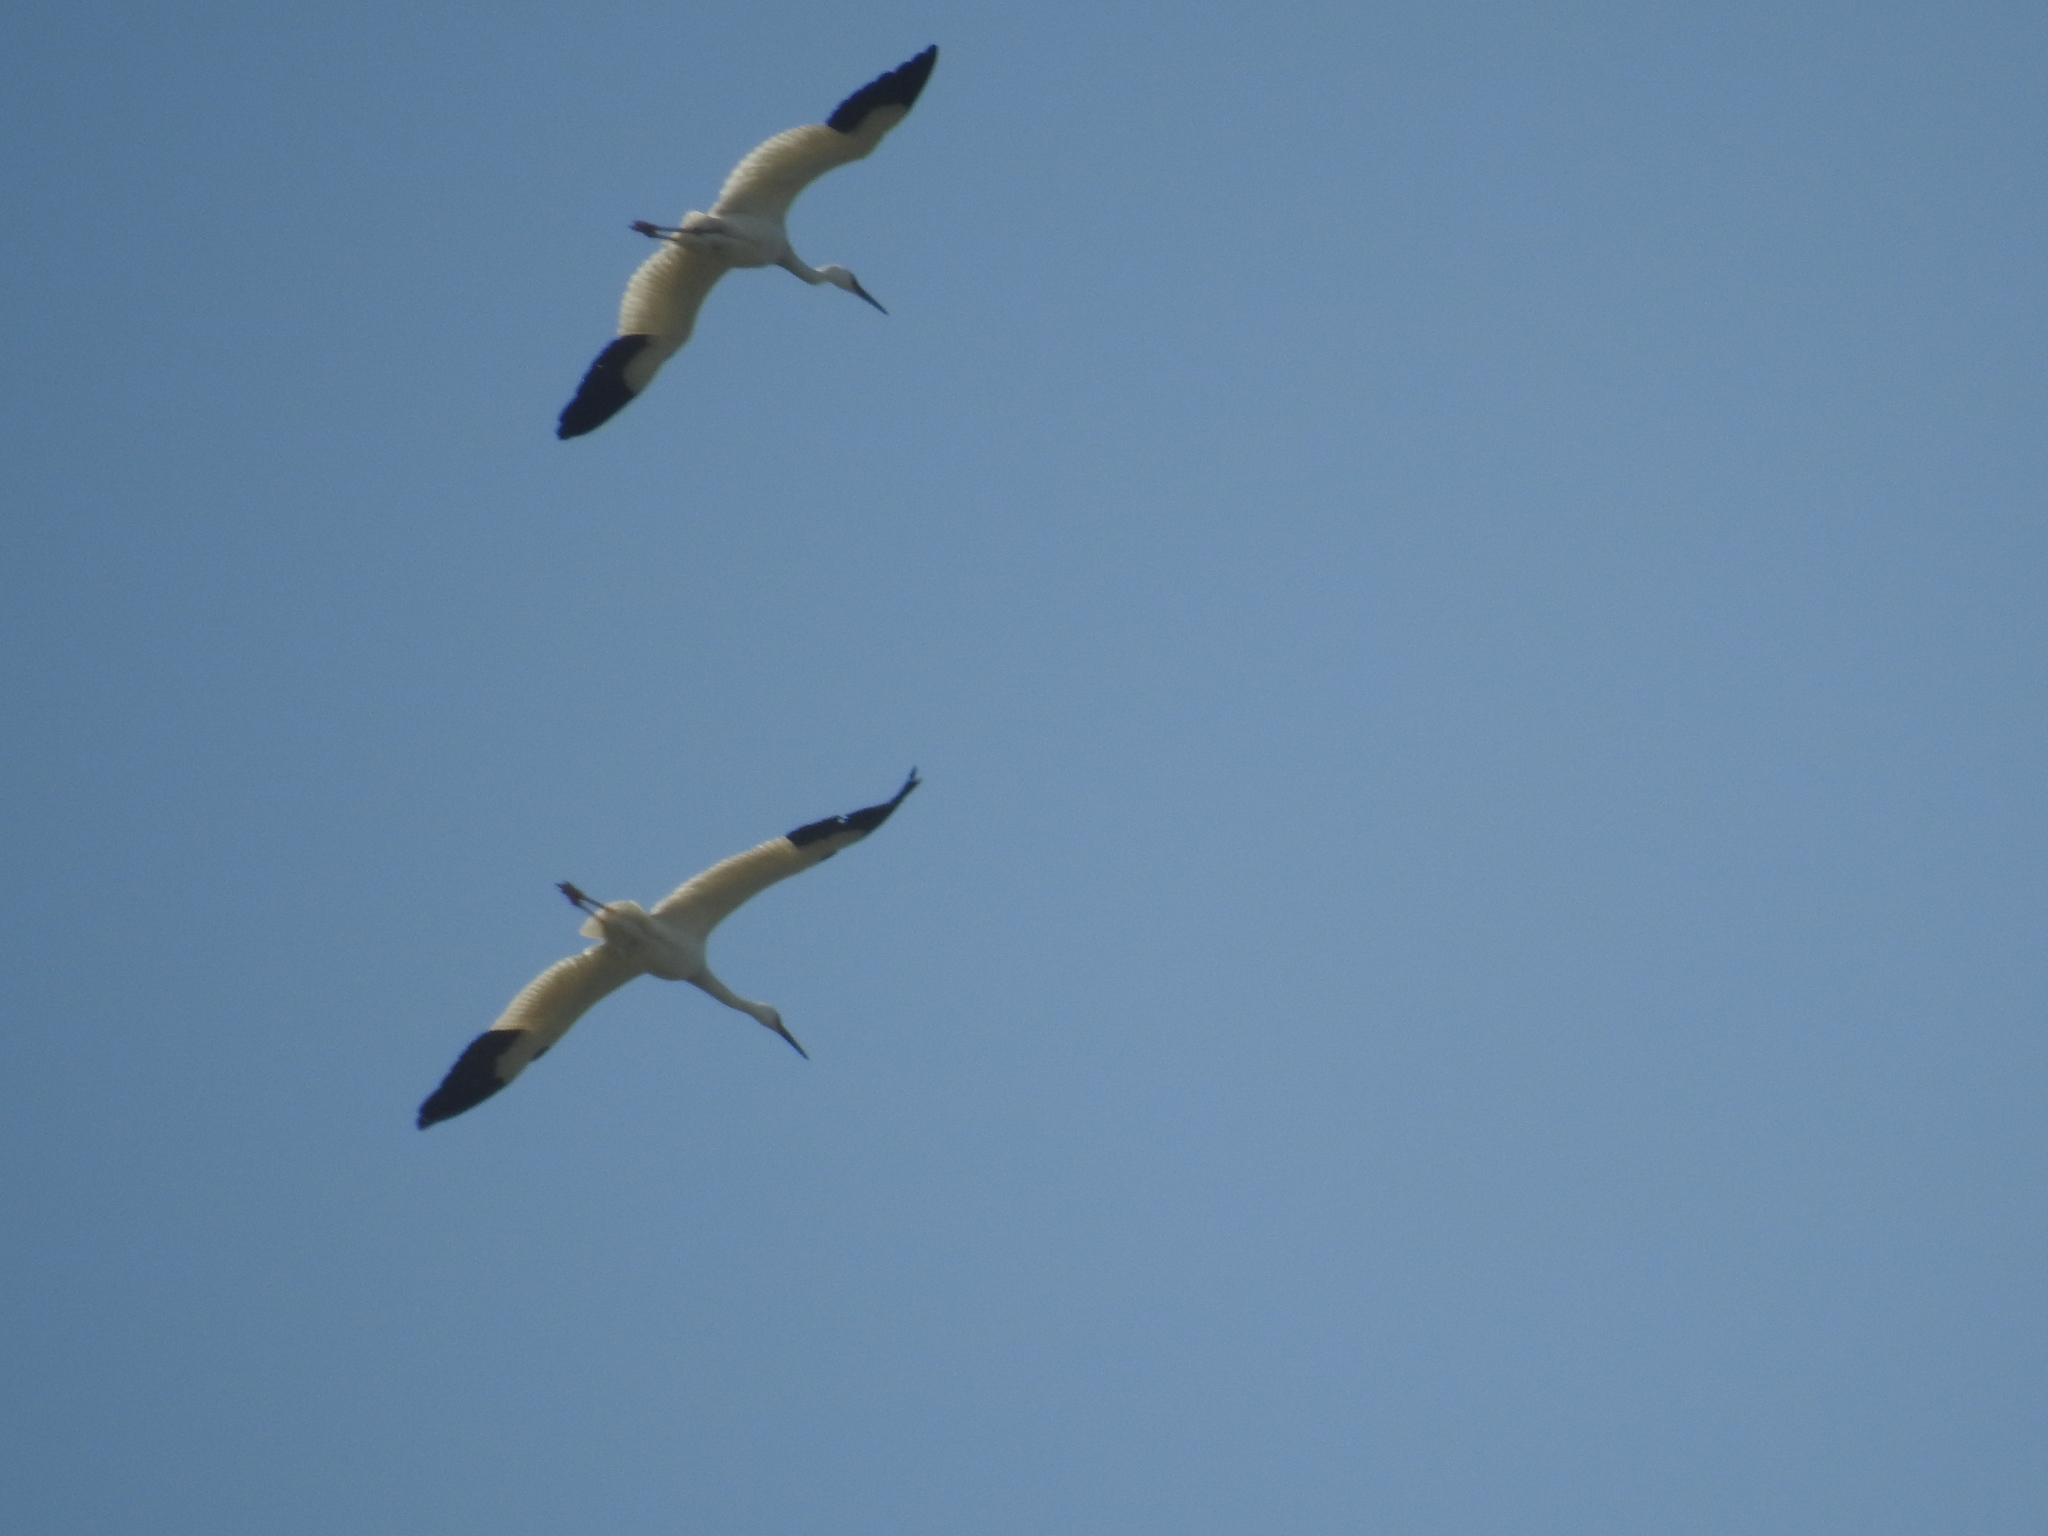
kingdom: Animalia
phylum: Chordata
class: Aves
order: Gruiformes
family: Gruidae
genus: Grus
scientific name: Grus leucogeranus
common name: Siberian crane
